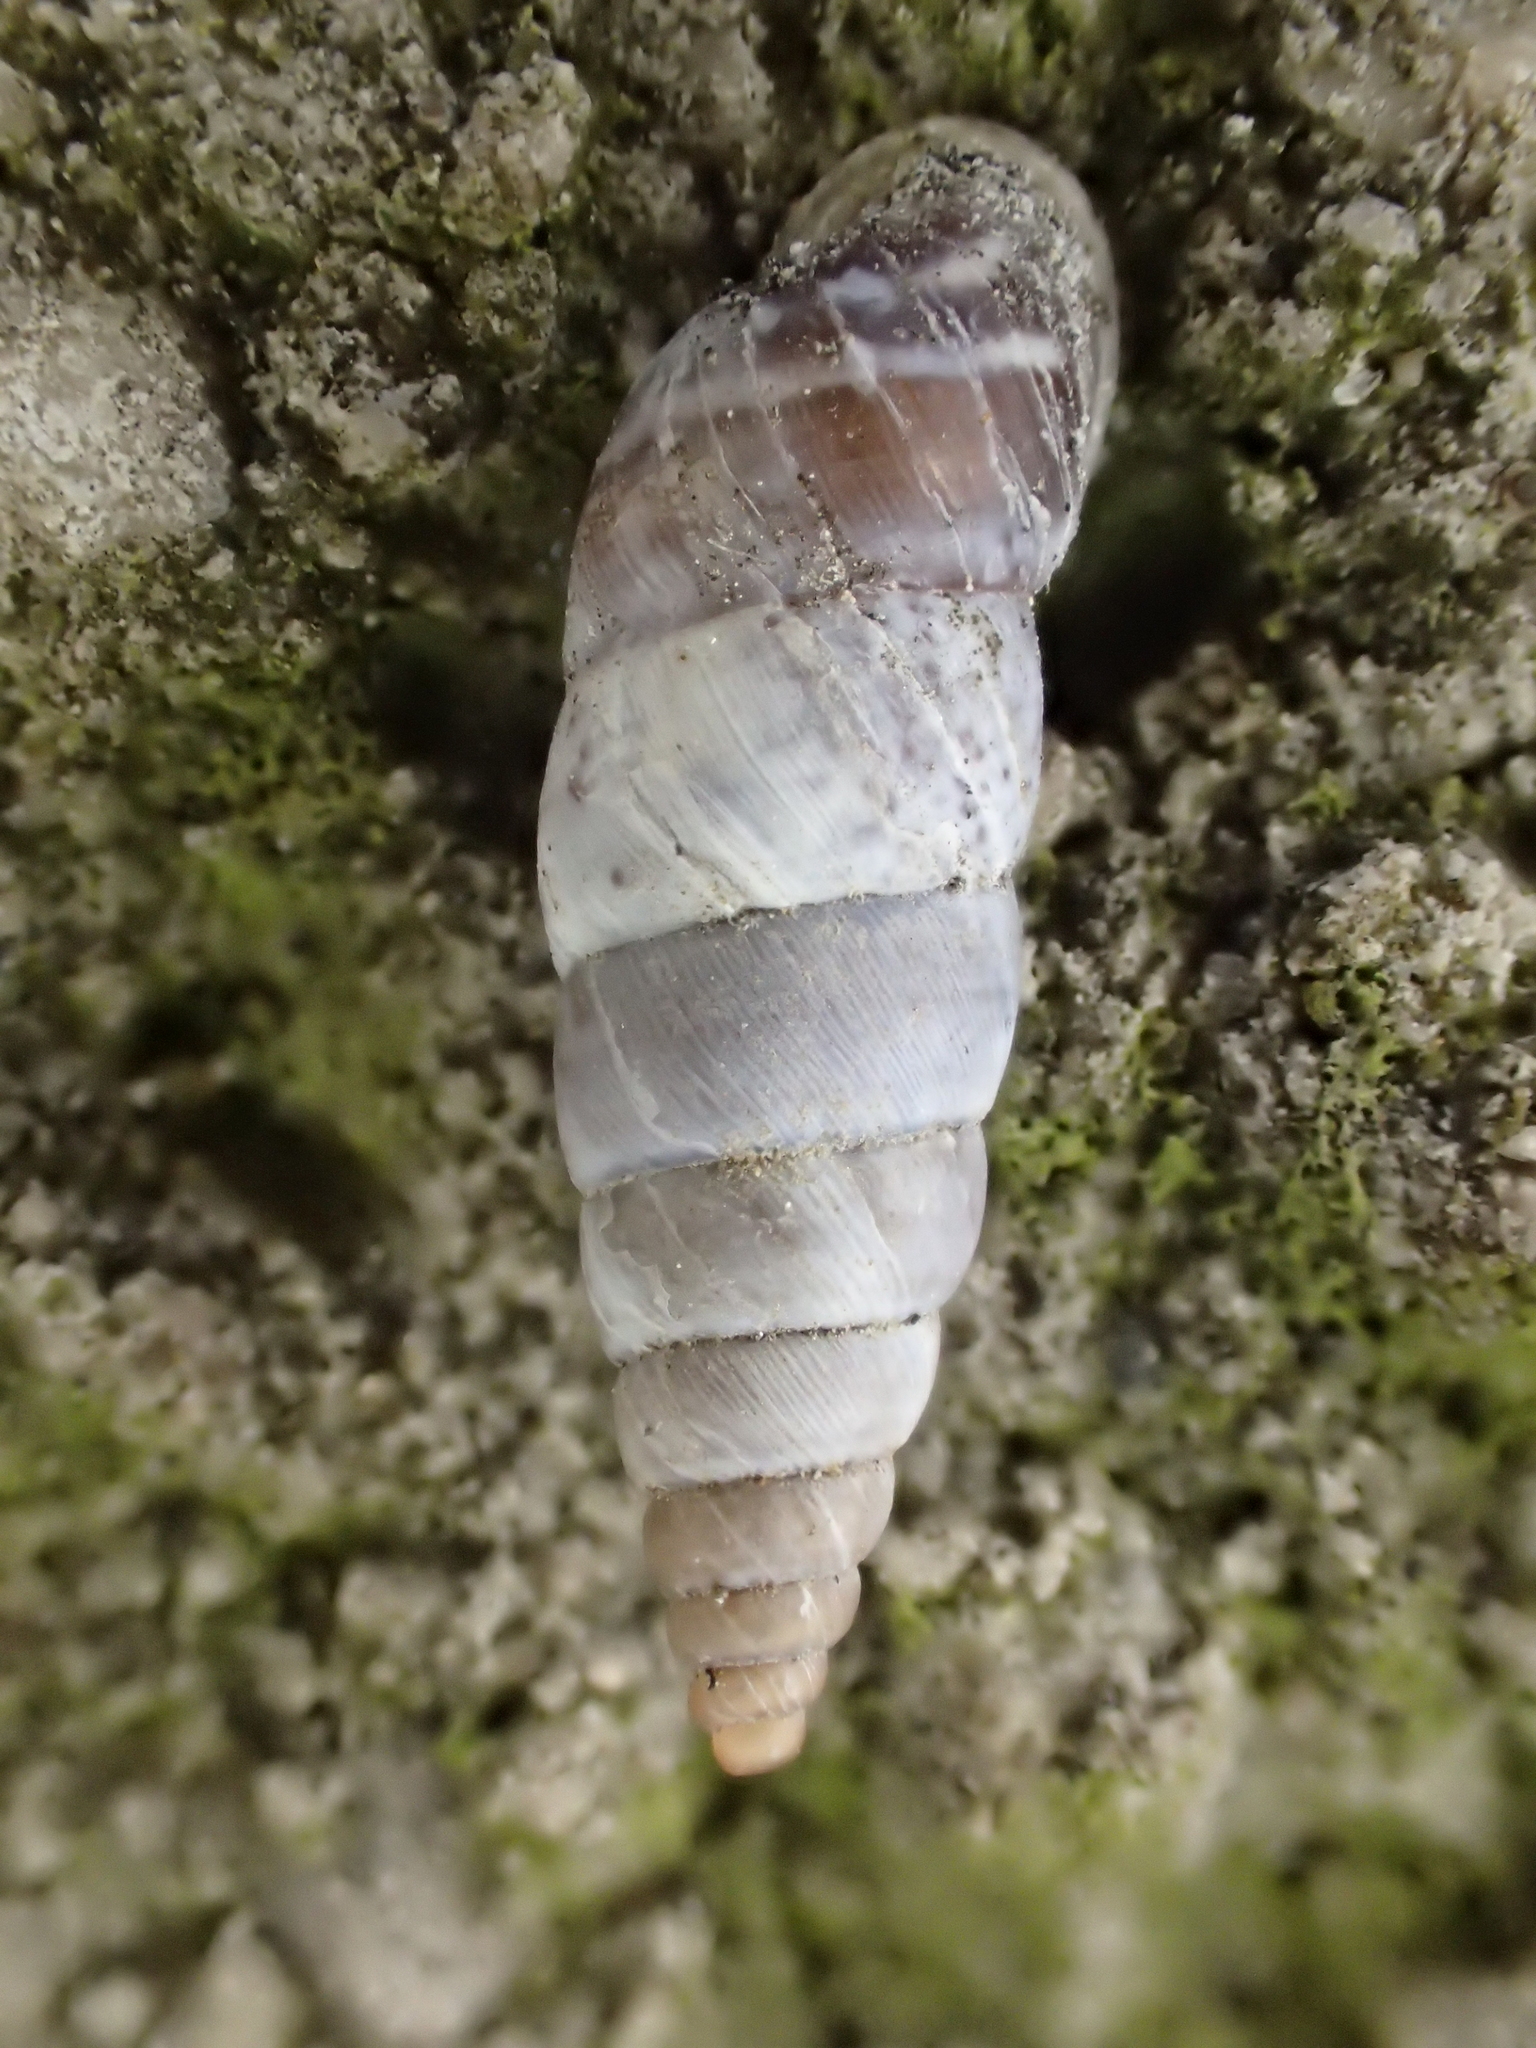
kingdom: Animalia
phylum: Mollusca
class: Gastropoda
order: Stylommatophora
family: Chondrinidae
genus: Solatopupa
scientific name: Solatopupa similis
